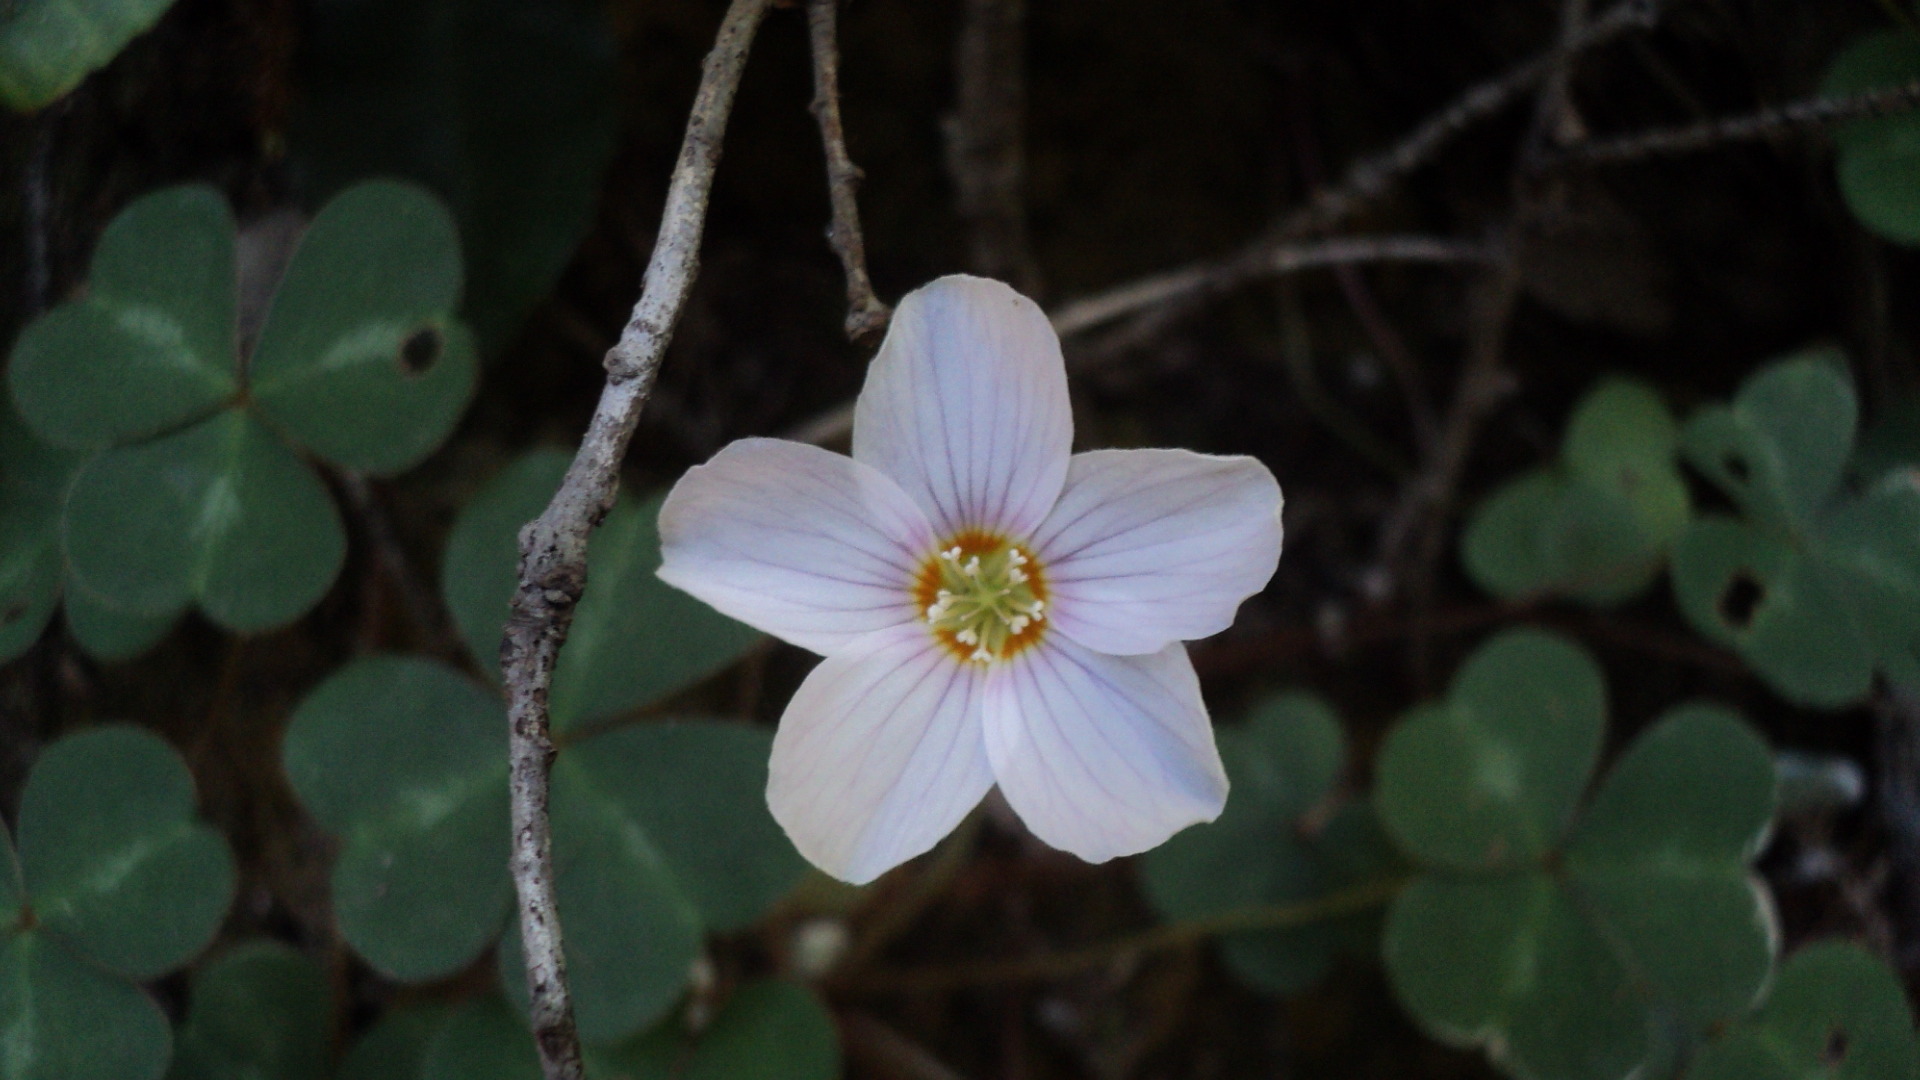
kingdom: Plantae
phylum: Tracheophyta
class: Magnoliopsida
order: Oxalidales
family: Oxalidaceae
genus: Oxalis
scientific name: Oxalis oregana
